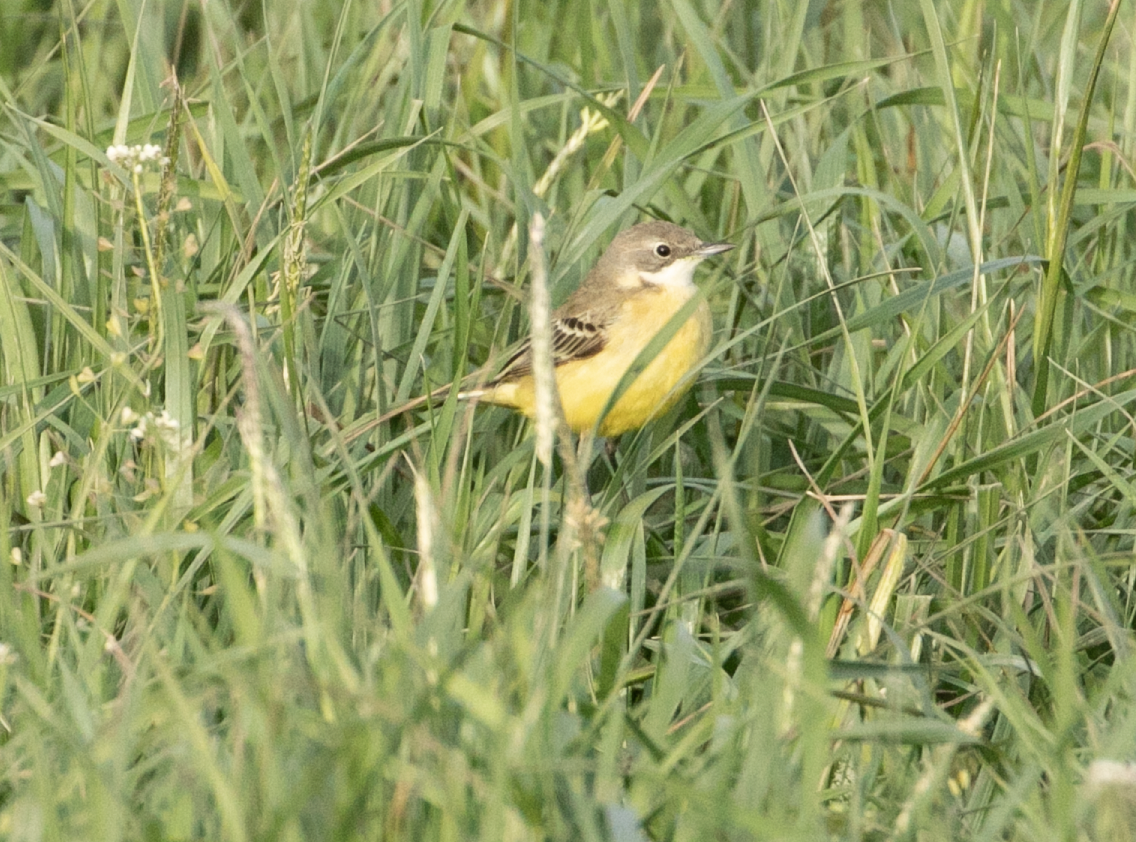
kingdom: Animalia
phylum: Chordata
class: Aves
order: Passeriformes
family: Motacillidae
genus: Motacilla
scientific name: Motacilla flava
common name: Western yellow wagtail
